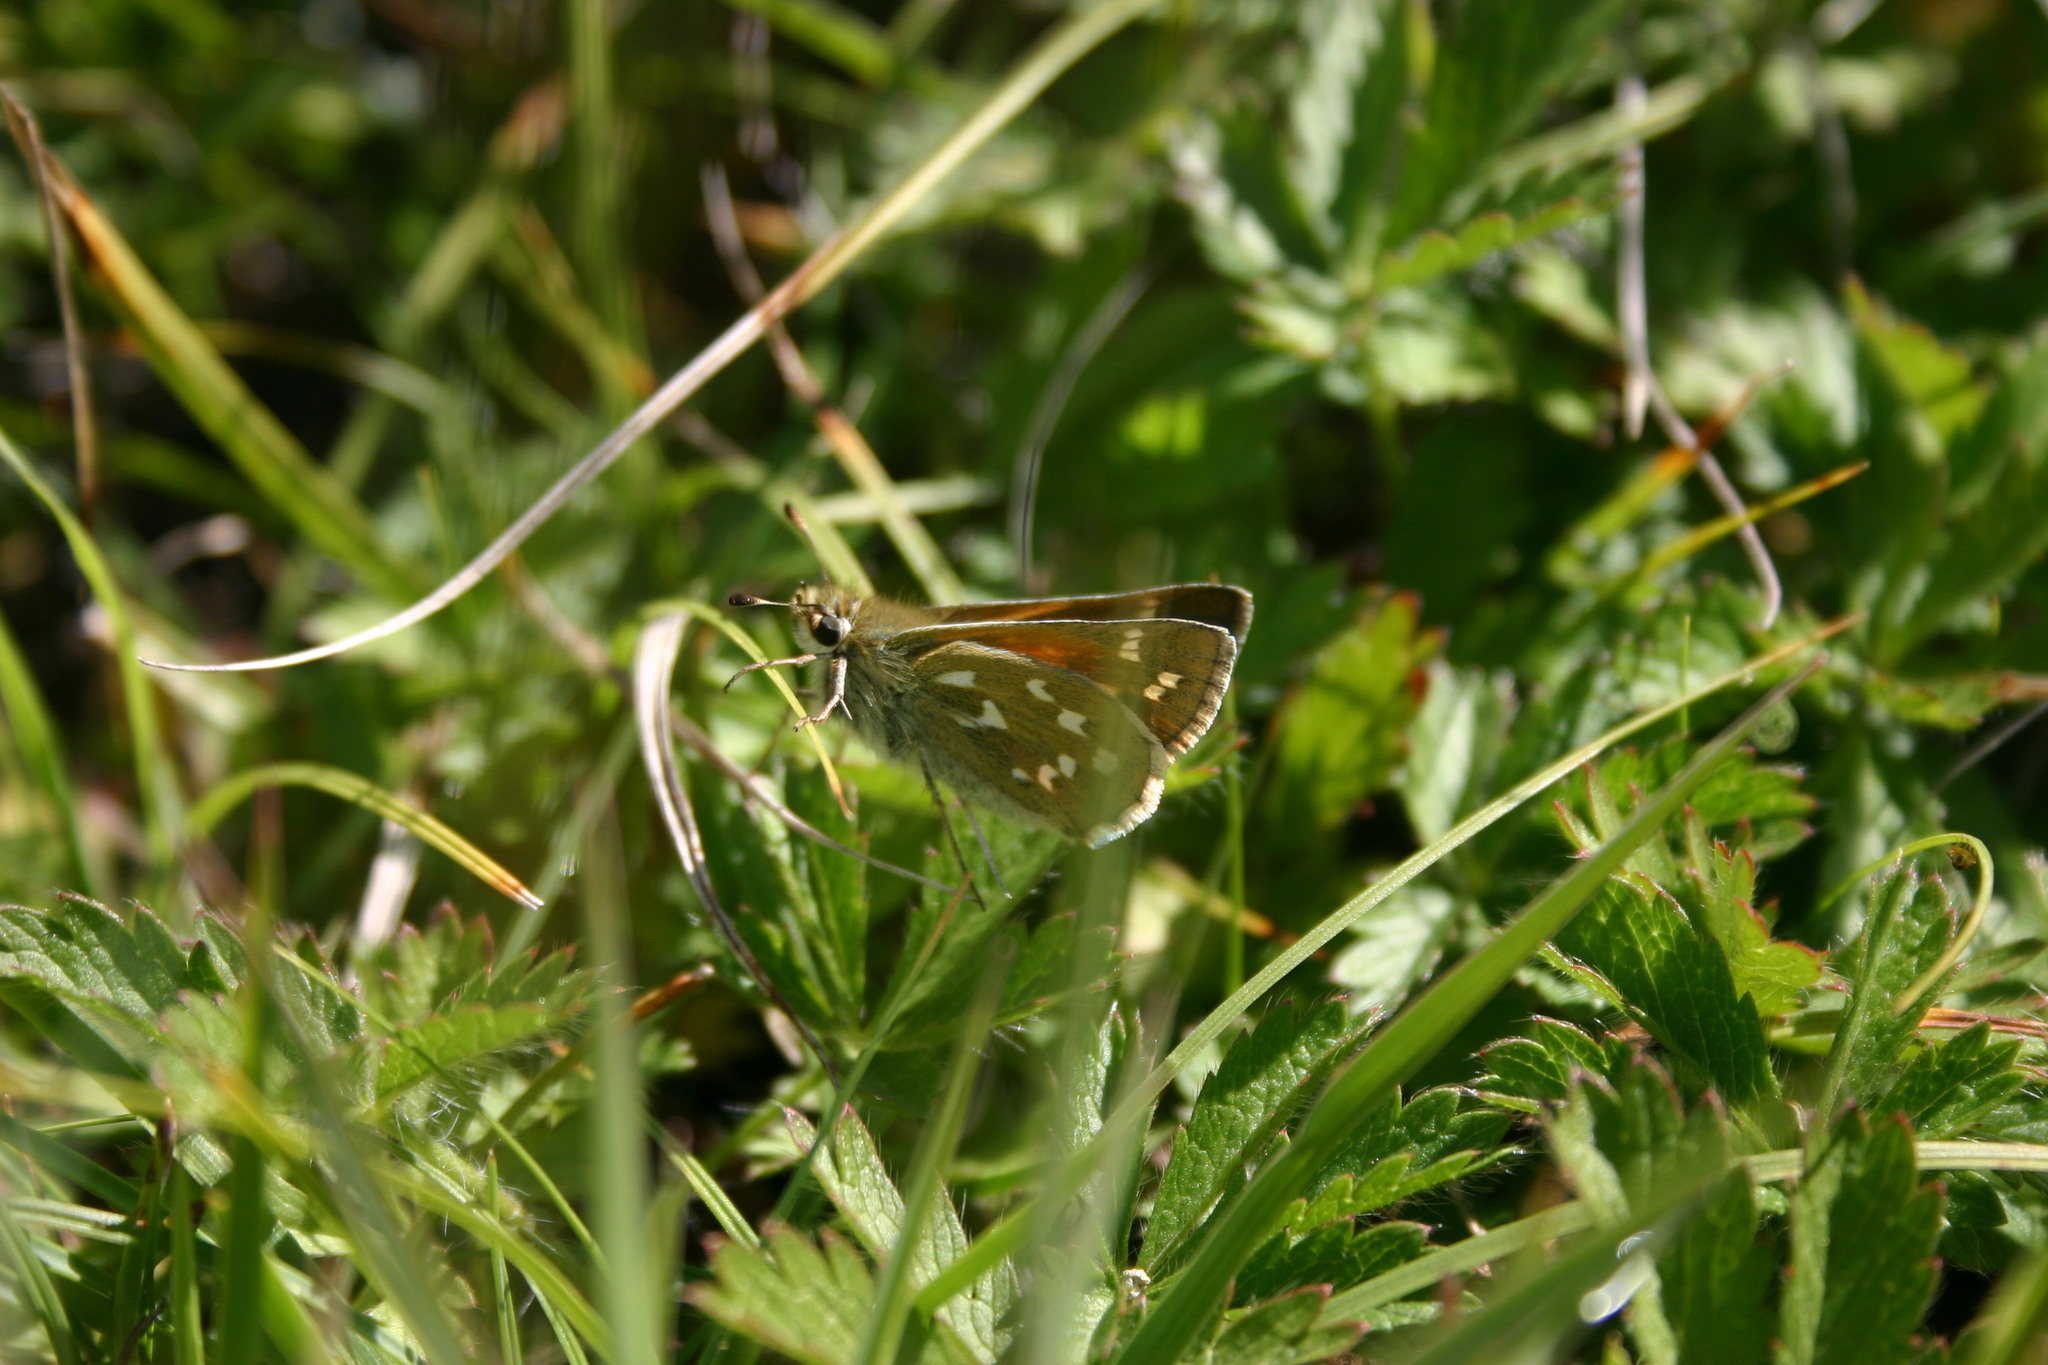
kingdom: Animalia
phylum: Arthropoda
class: Insecta
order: Lepidoptera
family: Hesperiidae
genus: Hesperia
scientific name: Hesperia comma
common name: Common branded skipper
